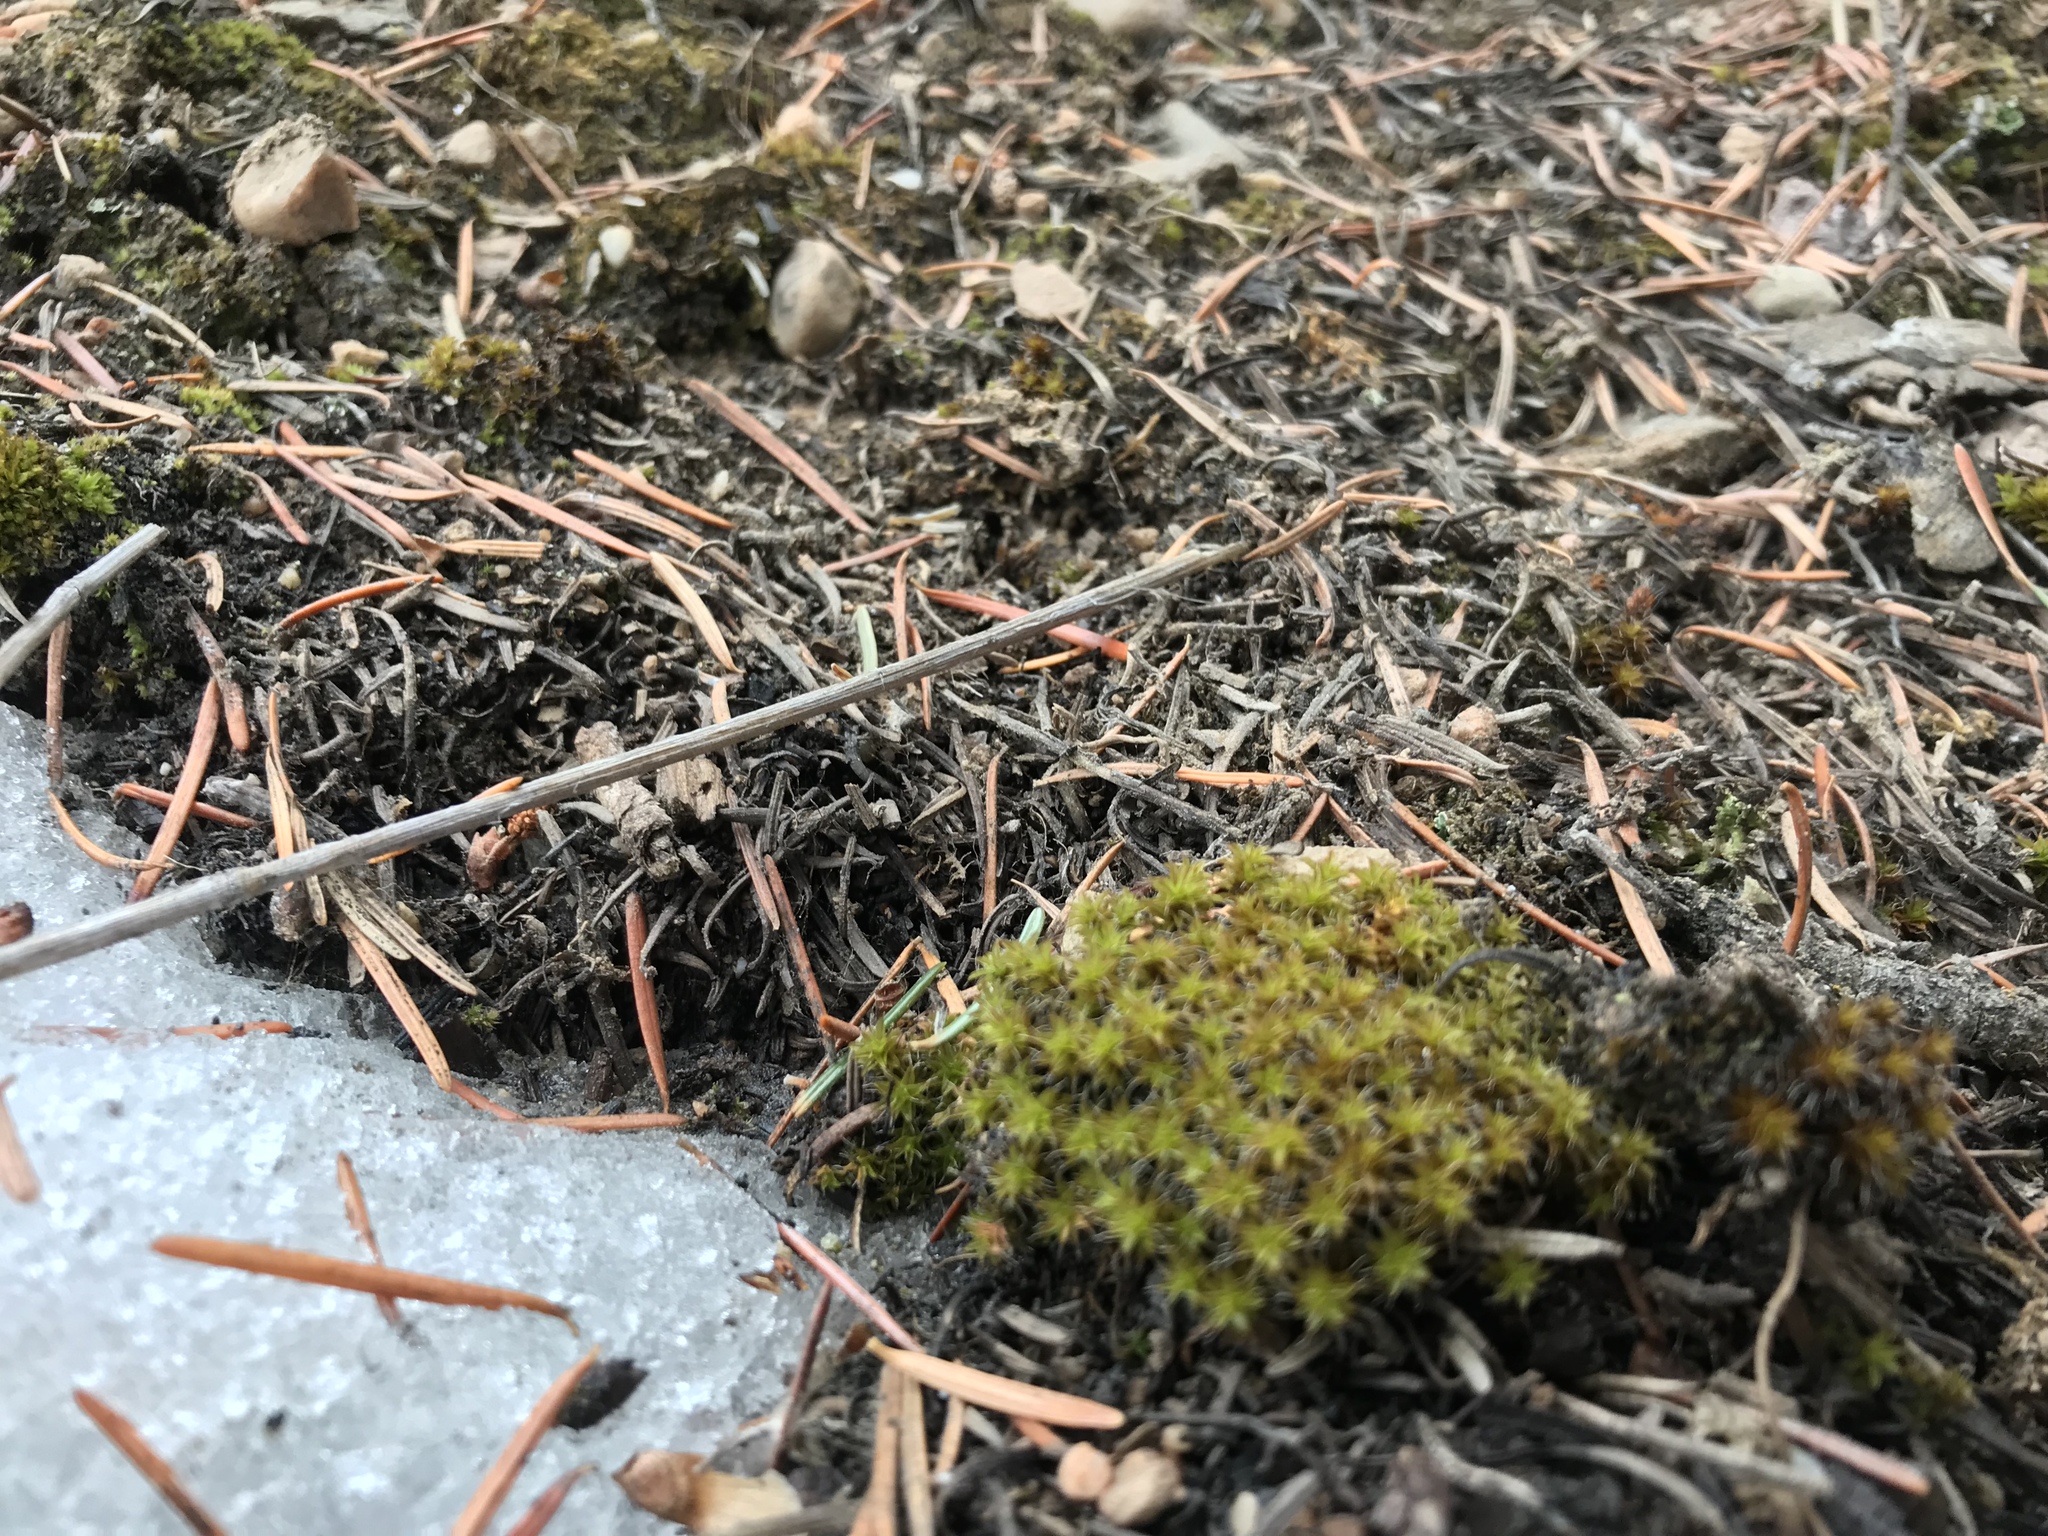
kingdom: Plantae
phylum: Bryophyta
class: Bryopsida
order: Pottiales
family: Pottiaceae
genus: Syntrichia
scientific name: Syntrichia ruralis
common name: Sidewalk screw moss
